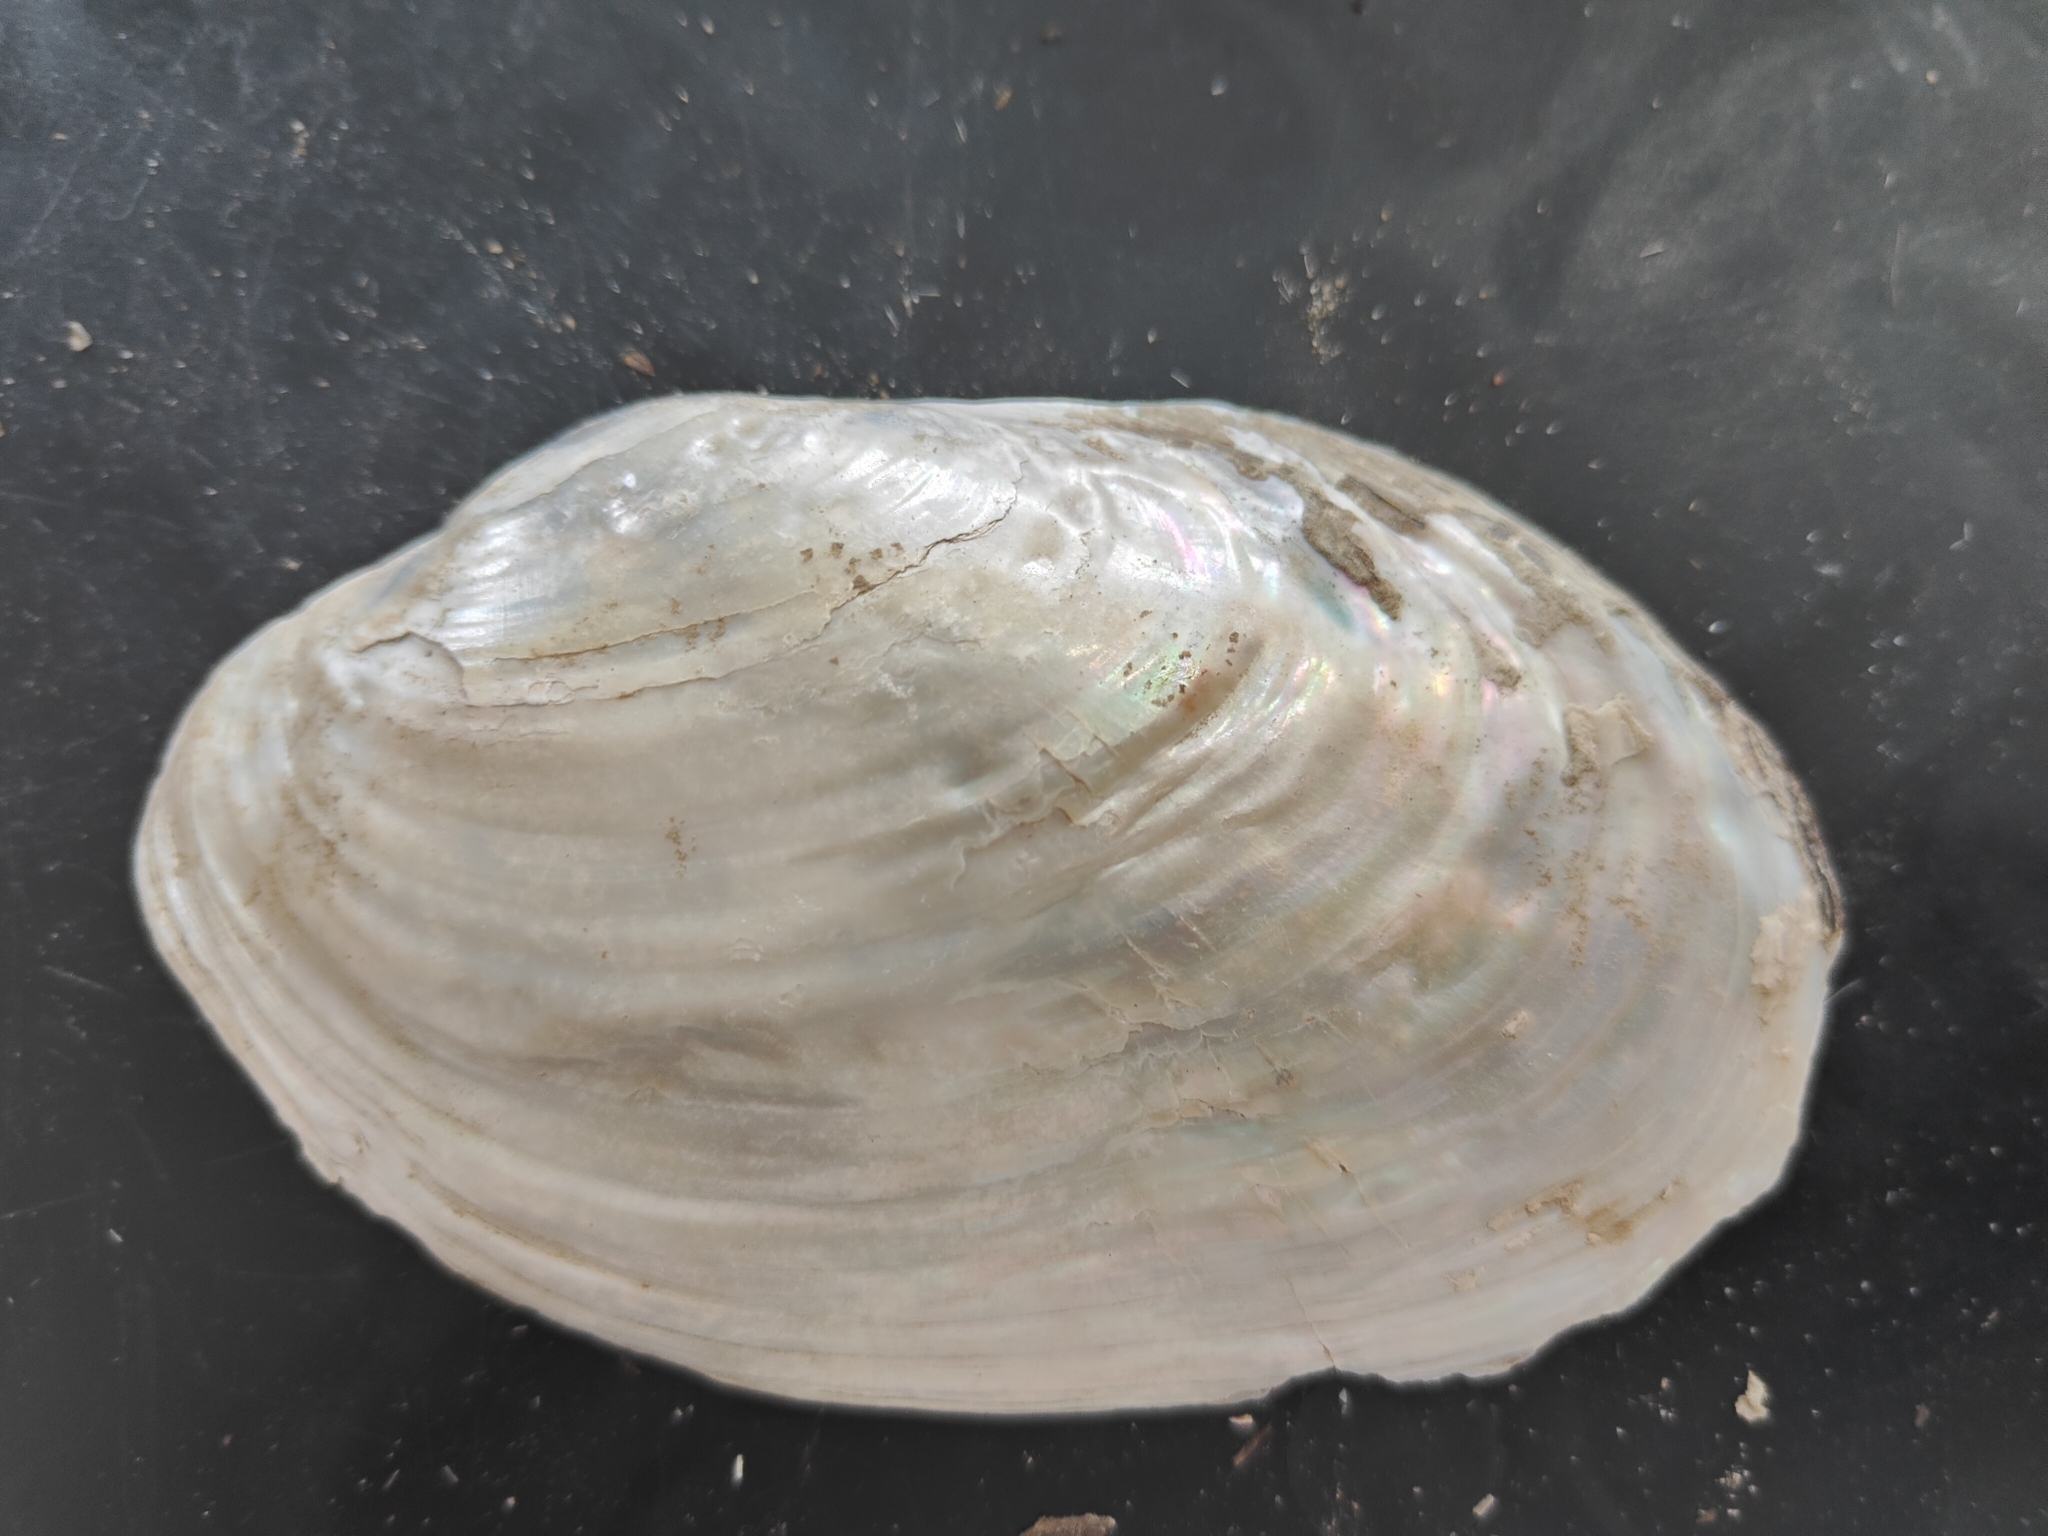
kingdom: Animalia
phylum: Mollusca
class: Bivalvia
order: Unionida
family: Unionidae
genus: Potamilus
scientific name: Potamilus fragilis
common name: Fragile papershell
